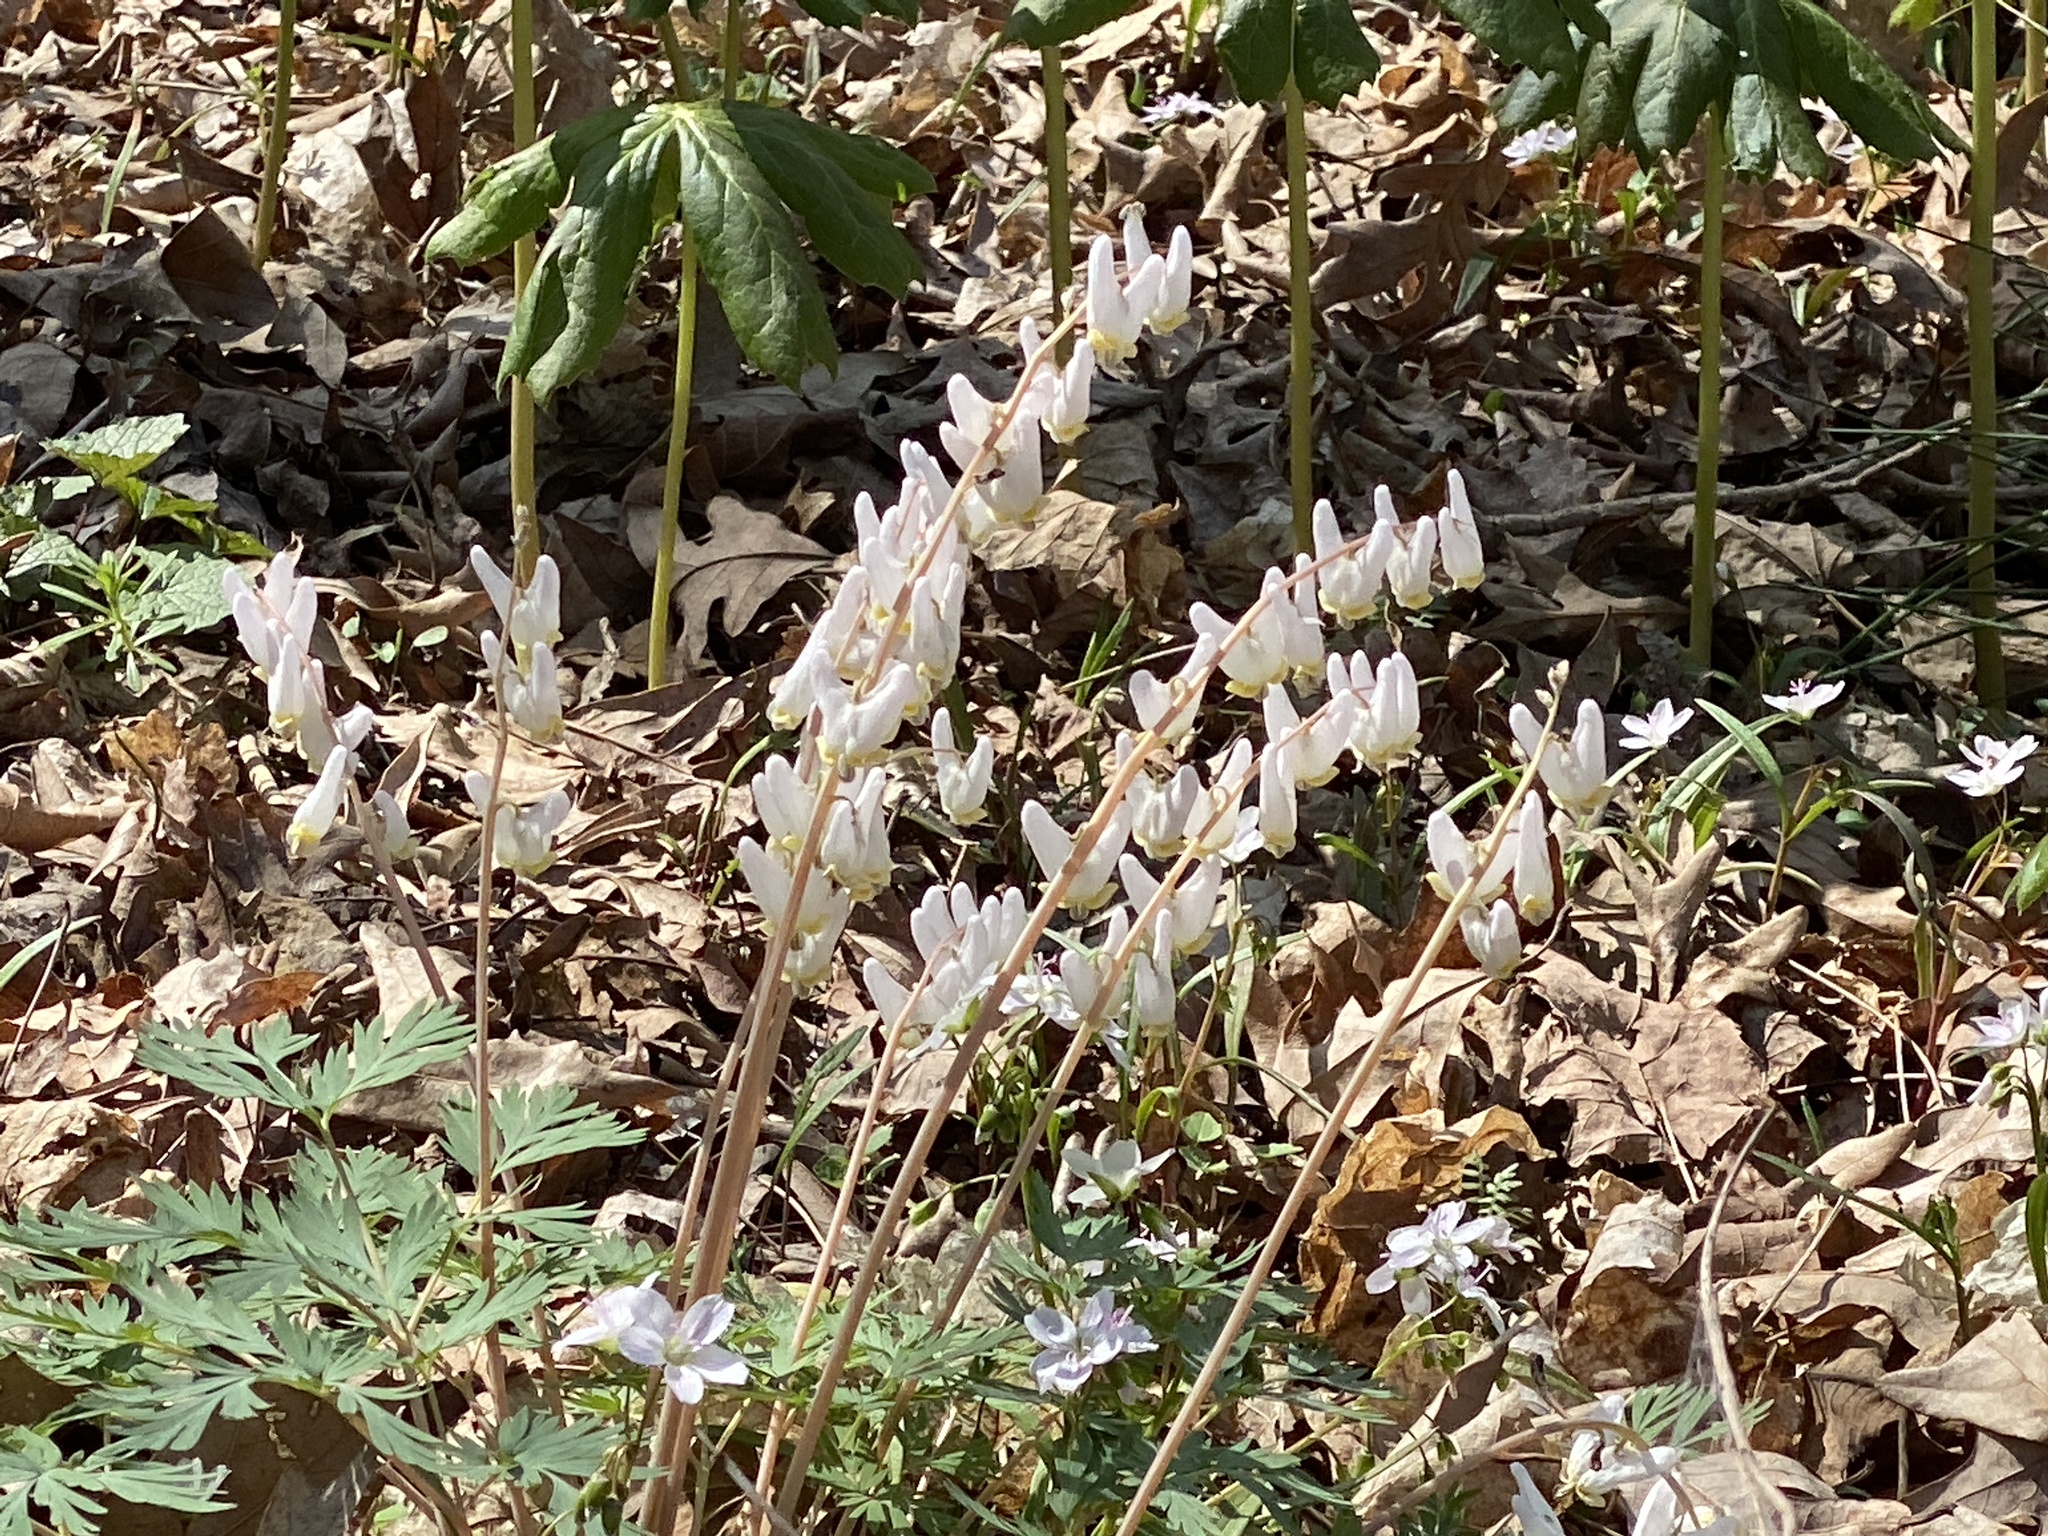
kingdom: Plantae
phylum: Tracheophyta
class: Magnoliopsida
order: Ranunculales
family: Papaveraceae
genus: Dicentra
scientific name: Dicentra cucullaria
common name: Dutchman's breeches
